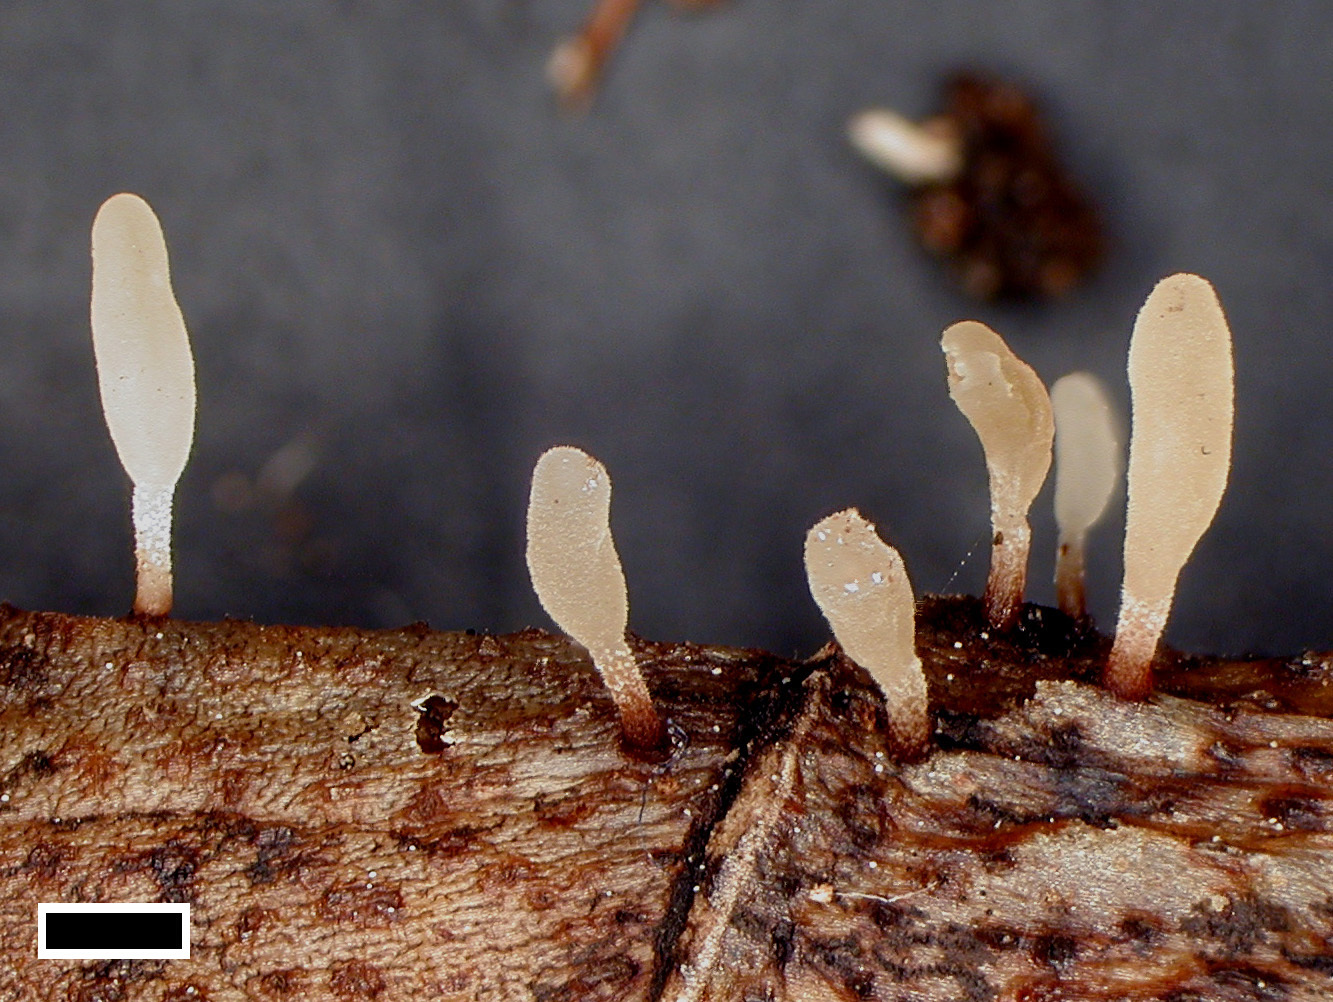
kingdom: Fungi
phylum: Basidiomycota
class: Agaricomycetes
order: Agaricales
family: Typhulaceae
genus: Typhula
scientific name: Typhula setipes
